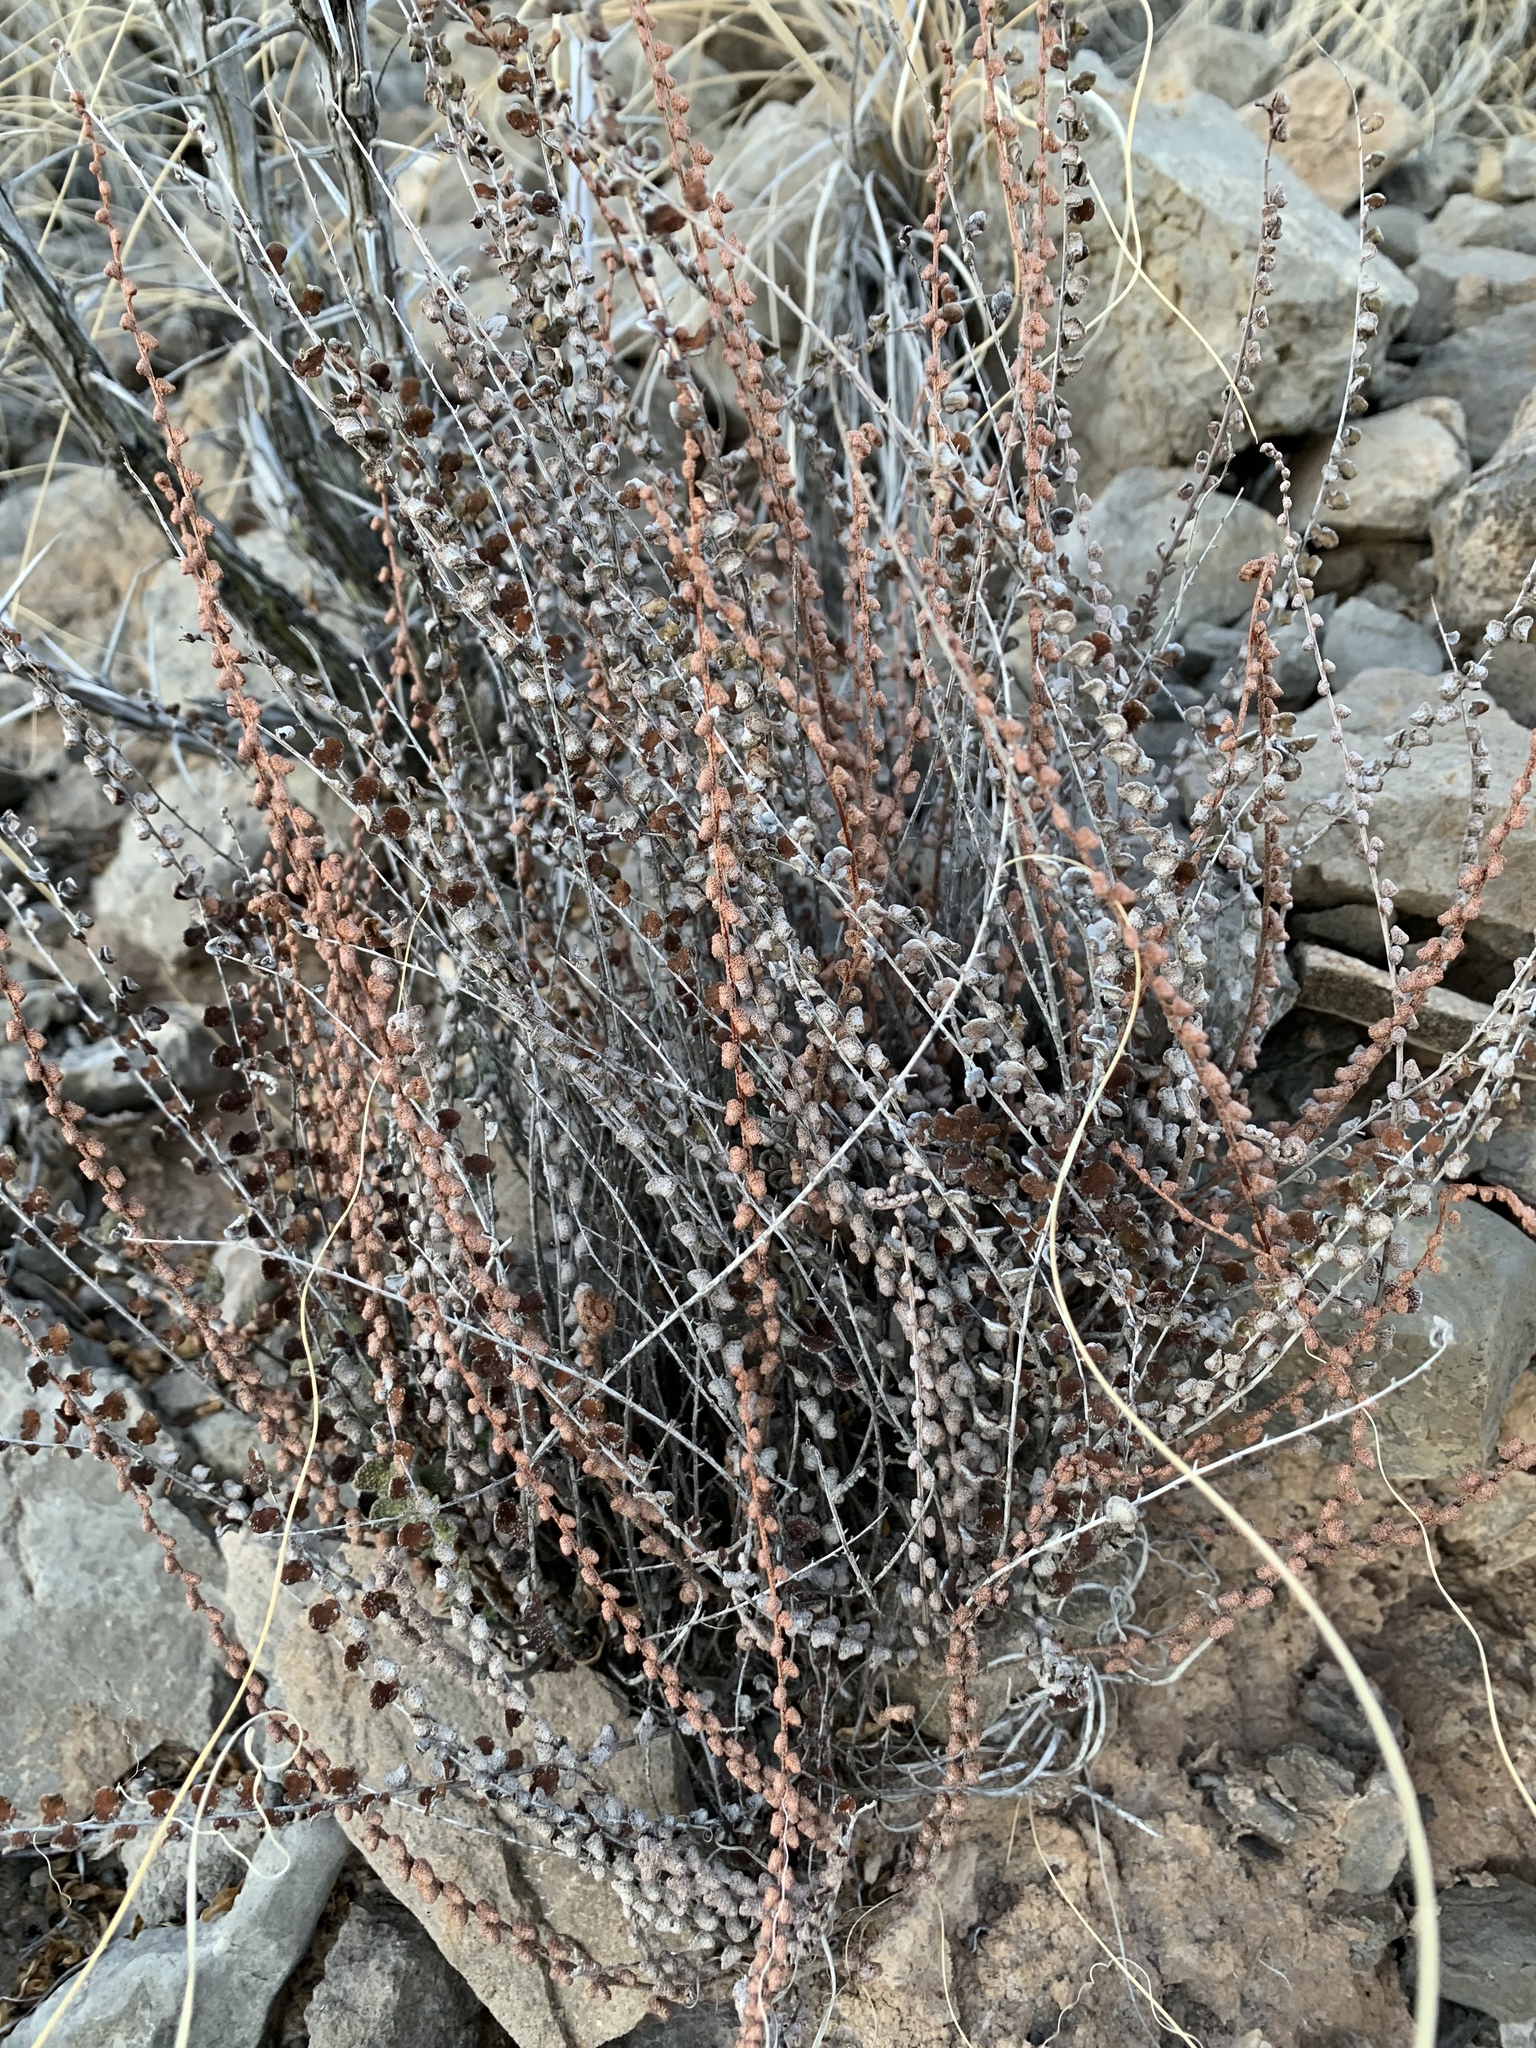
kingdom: Plantae
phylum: Tracheophyta
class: Polypodiopsida
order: Polypodiales
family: Pteridaceae
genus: Astrolepis
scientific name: Astrolepis cochisensis
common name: Scaly cloak fern
